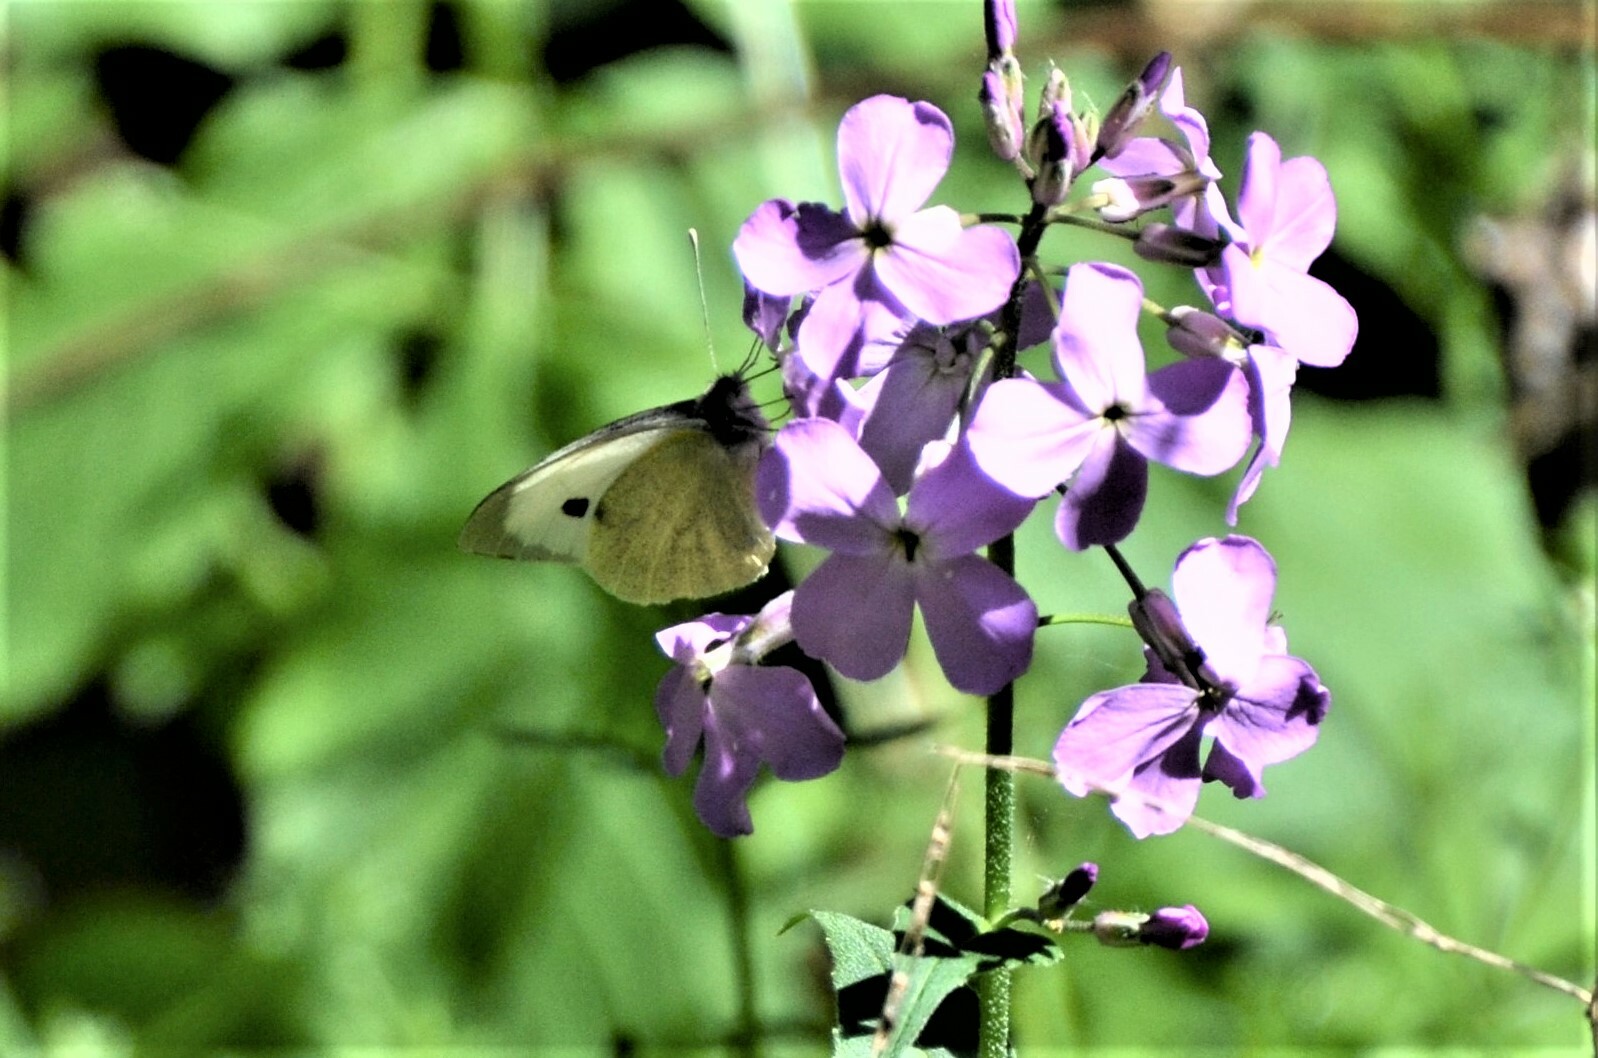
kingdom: Animalia
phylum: Arthropoda
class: Insecta
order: Lepidoptera
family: Pieridae
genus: Pieris
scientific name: Pieris brassicae
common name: Large white
